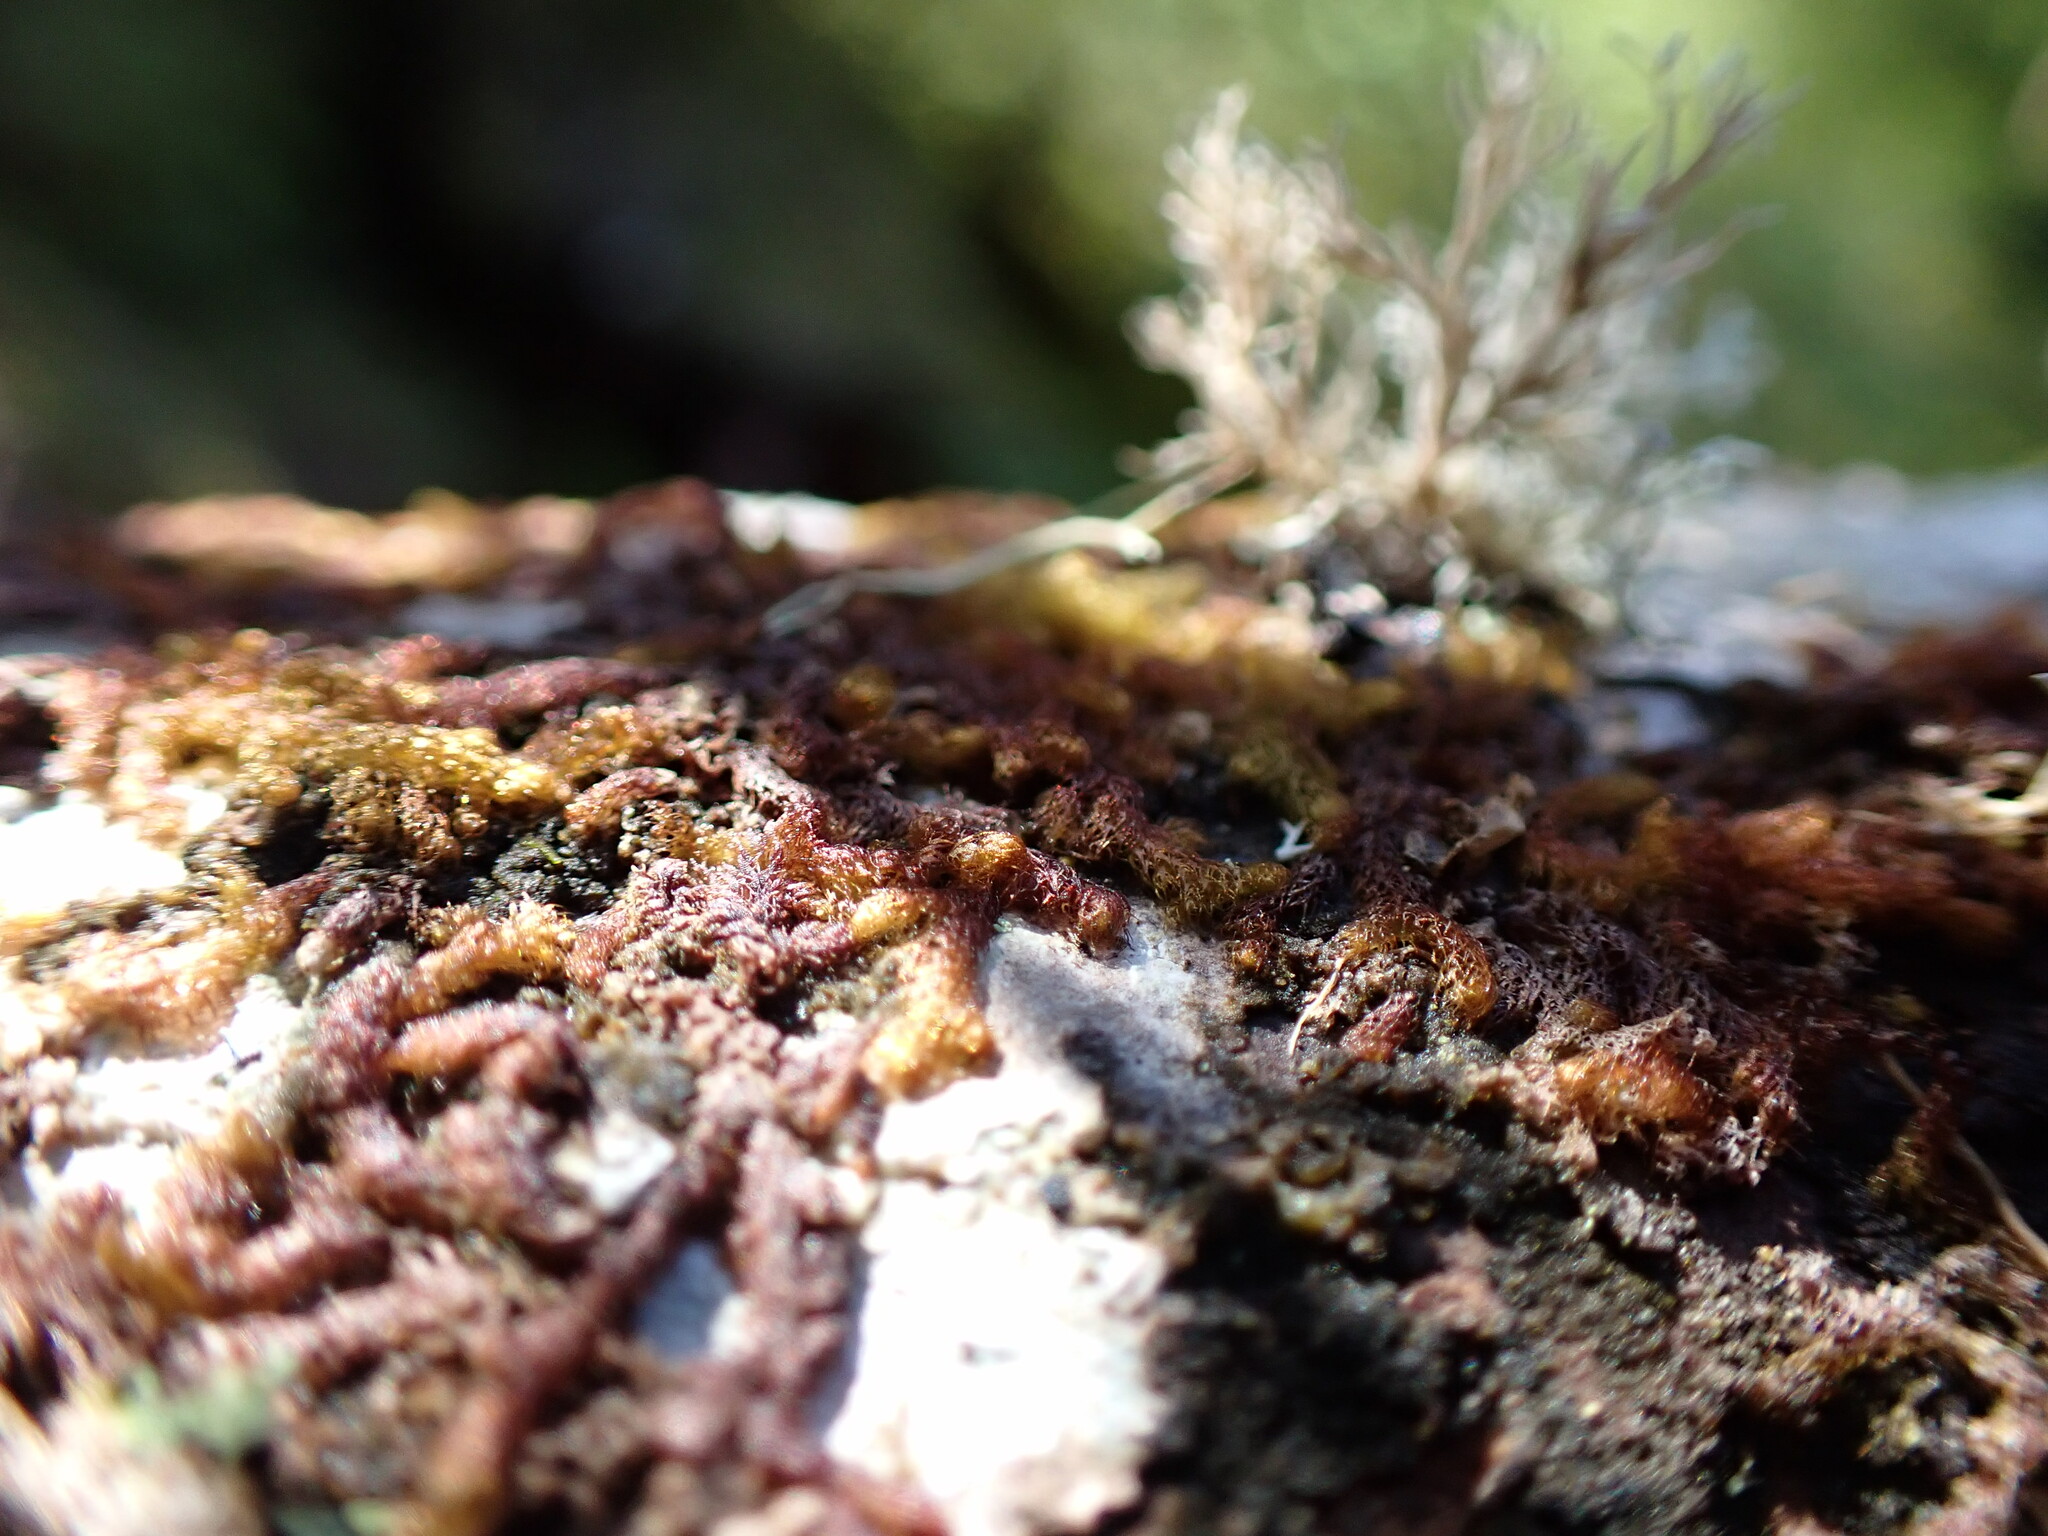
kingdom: Plantae
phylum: Marchantiophyta
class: Jungermanniopsida
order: Ptilidiales
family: Ptilidiaceae
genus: Ptilidium
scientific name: Ptilidium californicum
